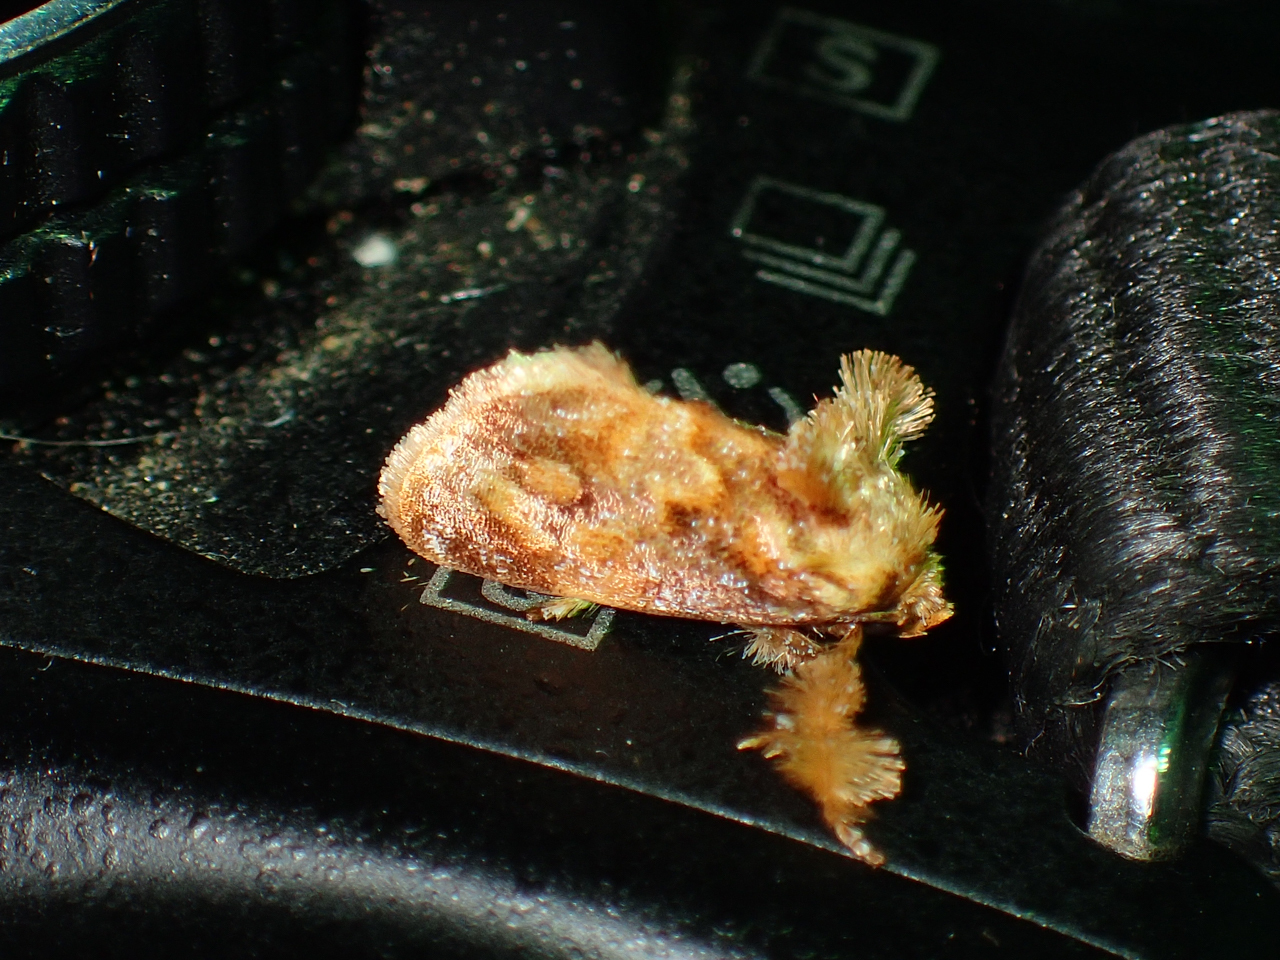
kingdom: Animalia
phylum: Arthropoda
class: Insecta
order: Lepidoptera
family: Limacodidae
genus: Isochaetes
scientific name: Isochaetes beutenmuelleri
